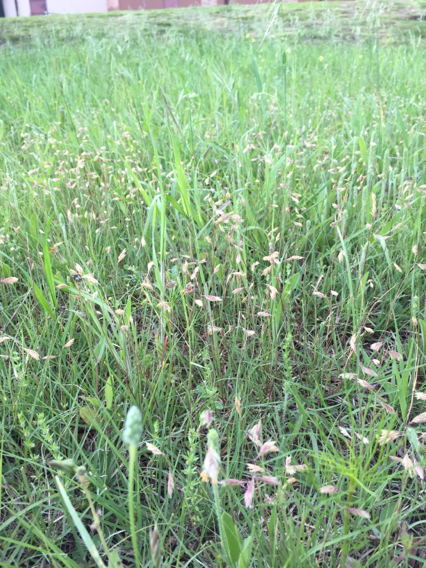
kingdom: Plantae
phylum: Tracheophyta
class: Liliopsida
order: Poales
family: Poaceae
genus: Bouteloua
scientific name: Bouteloua dactyloides
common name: Buffalo grass
